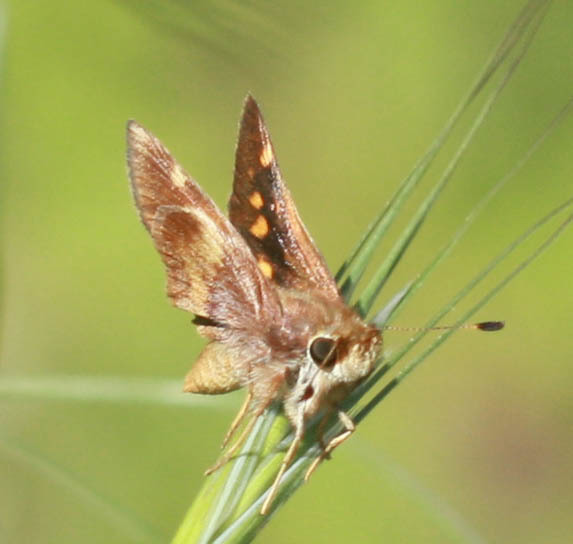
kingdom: Animalia
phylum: Arthropoda
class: Insecta
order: Lepidoptera
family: Hesperiidae
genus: Lon
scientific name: Lon melane
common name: Umber skipper
